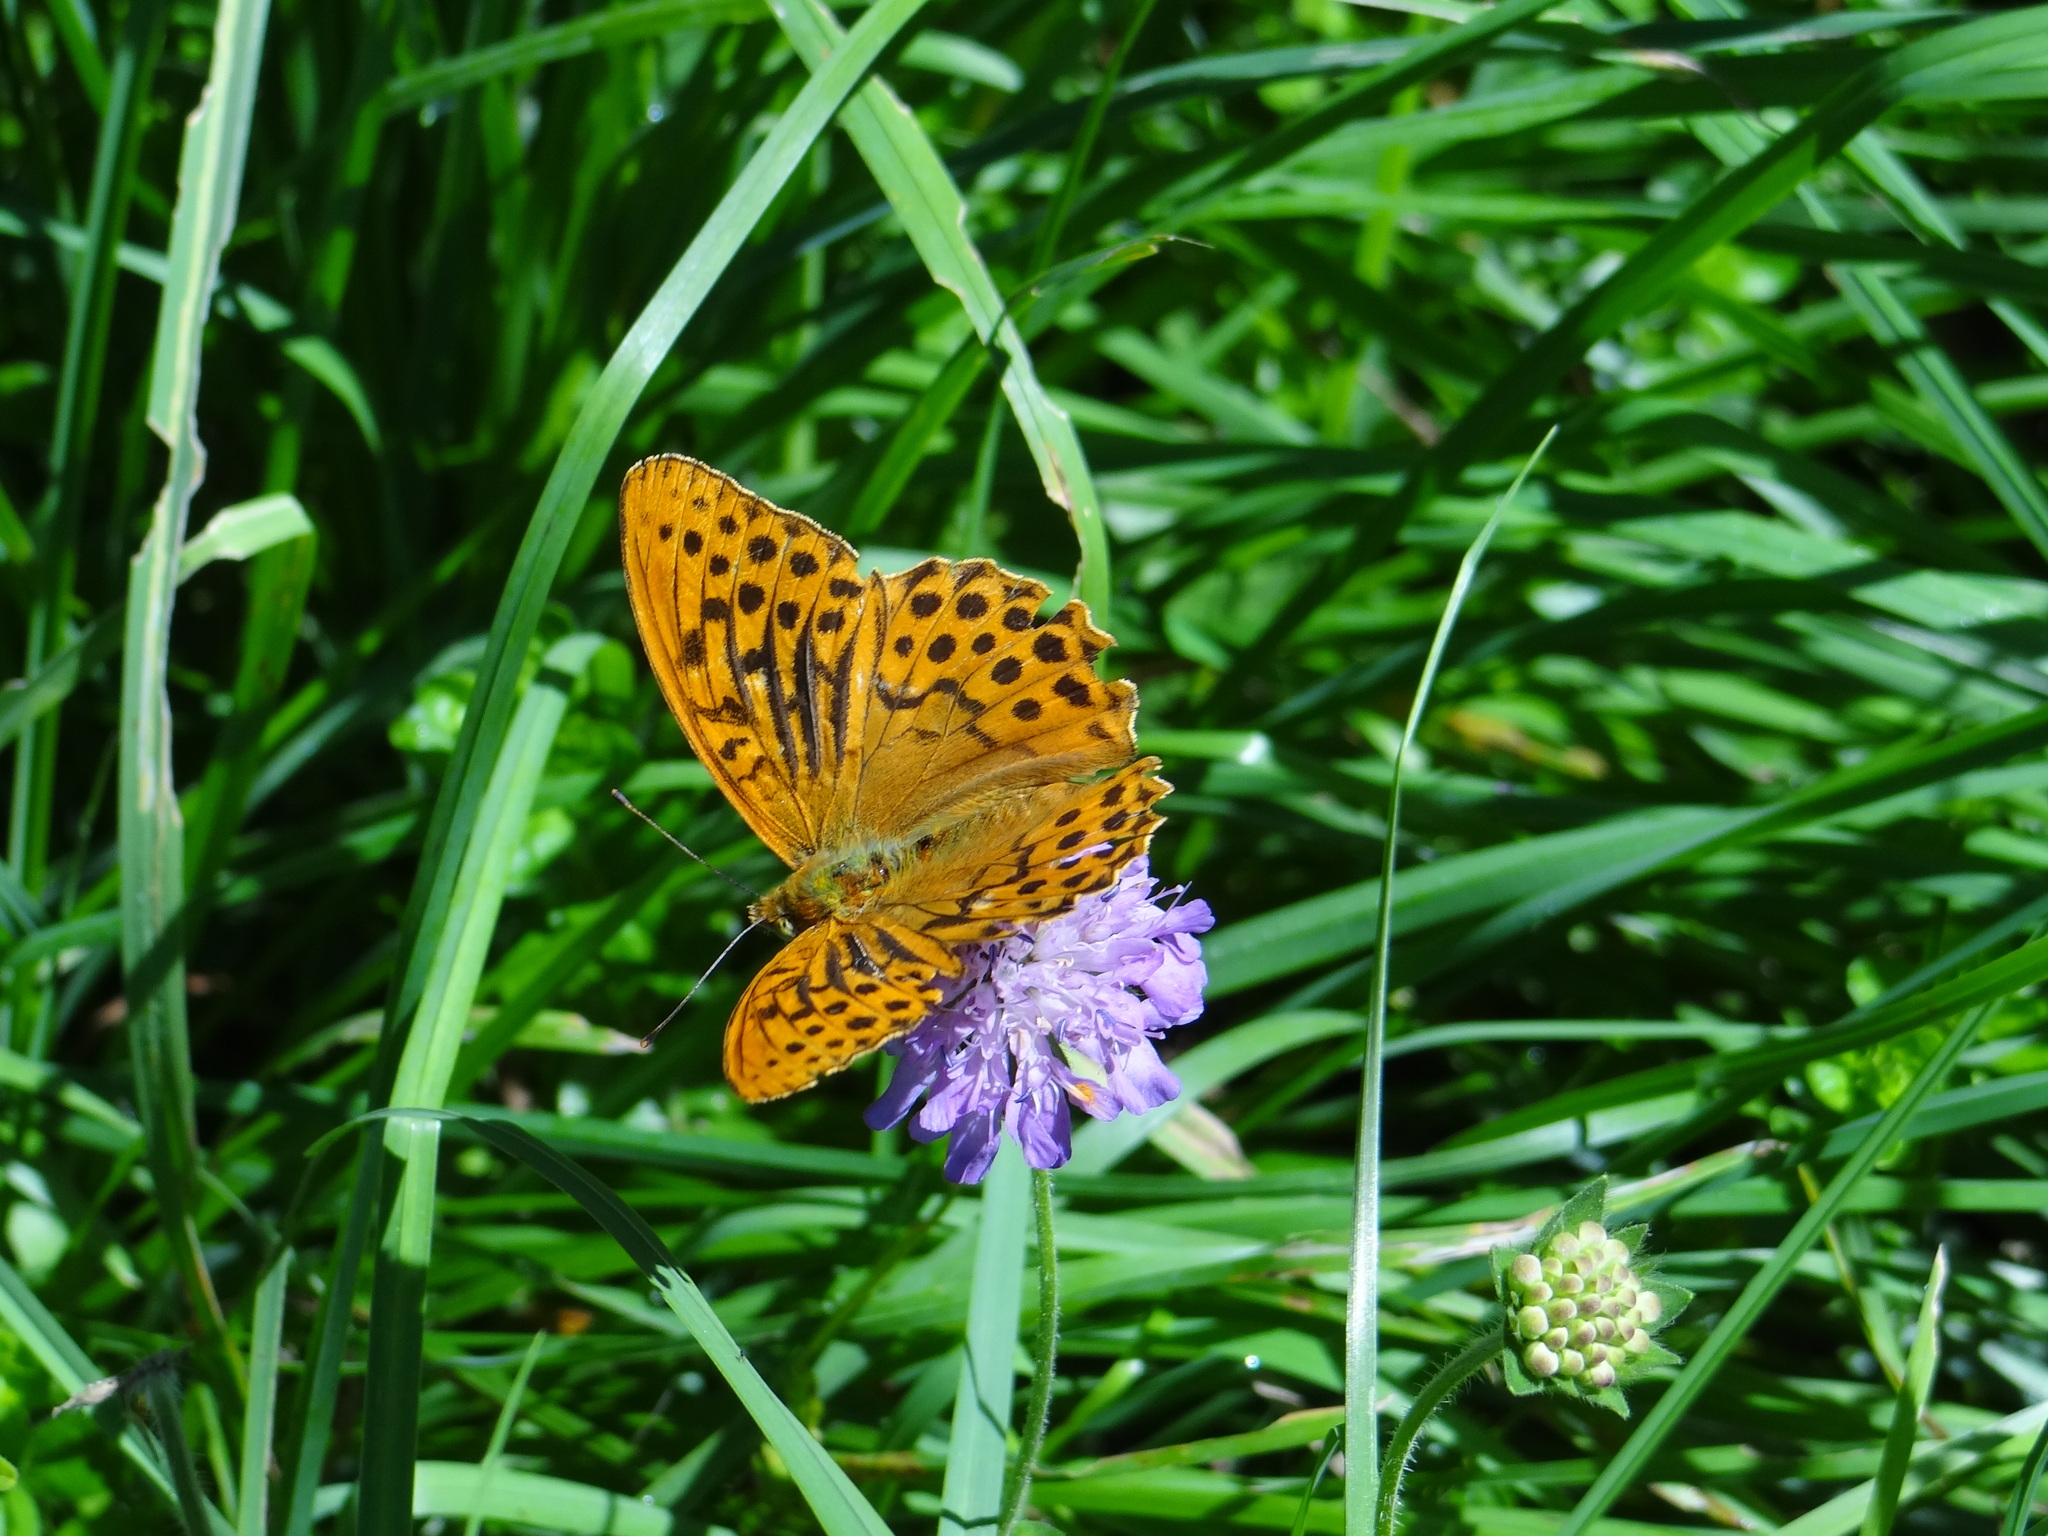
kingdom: Animalia
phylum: Arthropoda
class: Insecta
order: Lepidoptera
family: Nymphalidae
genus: Argynnis
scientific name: Argynnis paphia
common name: Silver-washed fritillary
